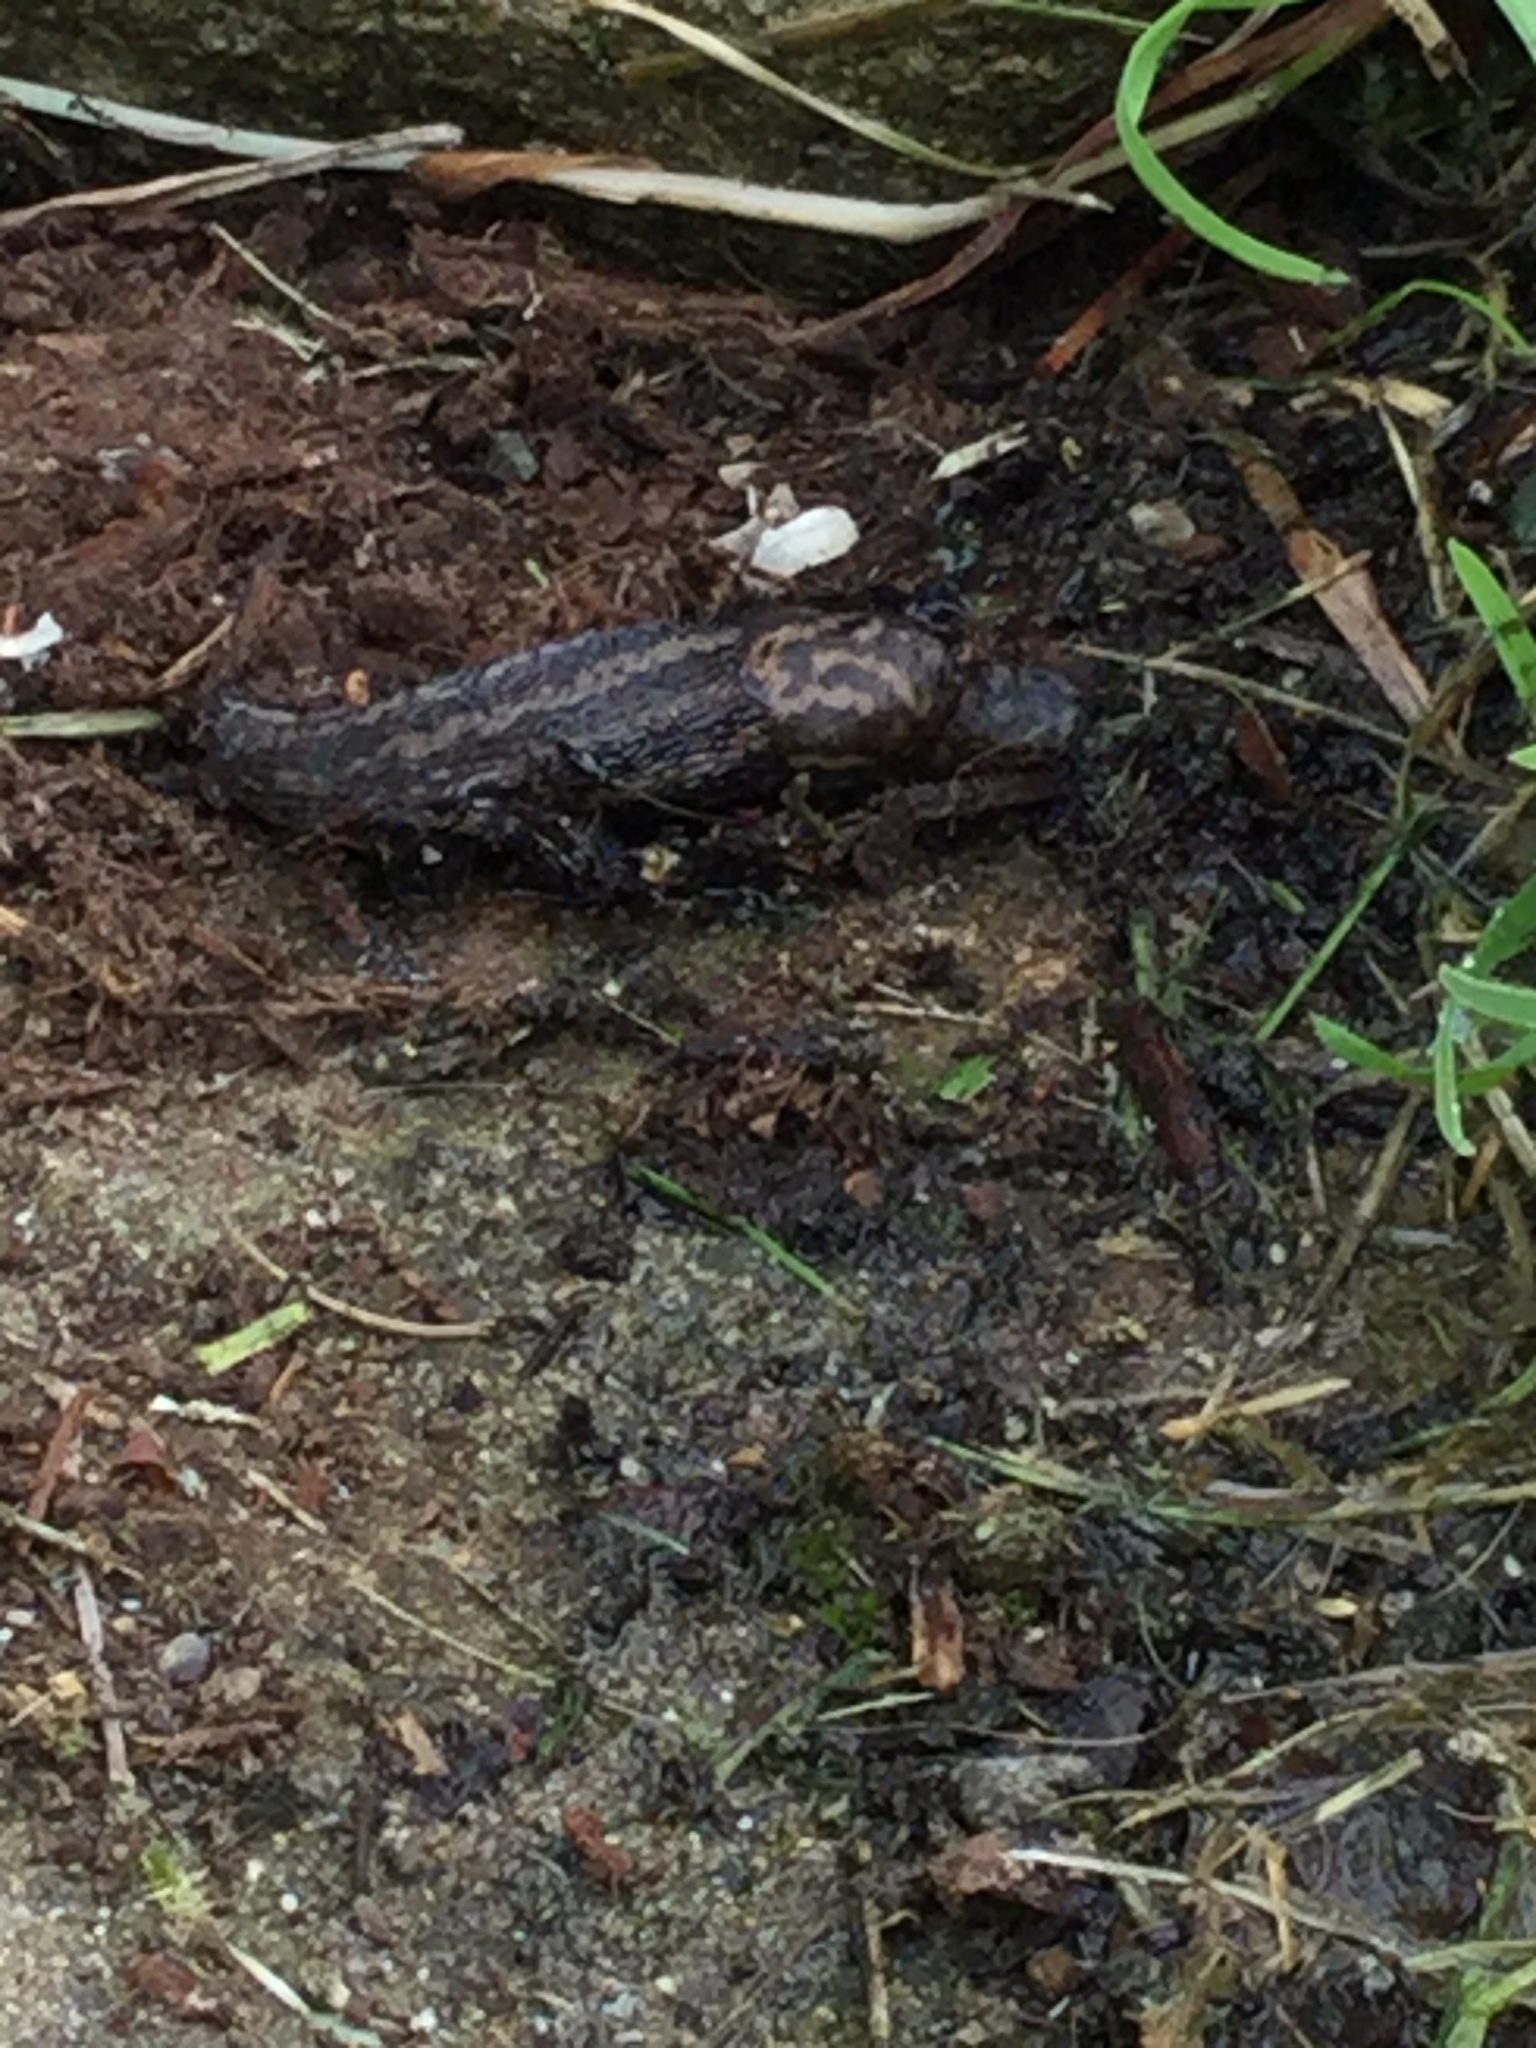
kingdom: Animalia
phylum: Mollusca
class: Gastropoda
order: Stylommatophora
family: Limacidae
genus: Limax
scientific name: Limax maximus
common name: Great grey slug
